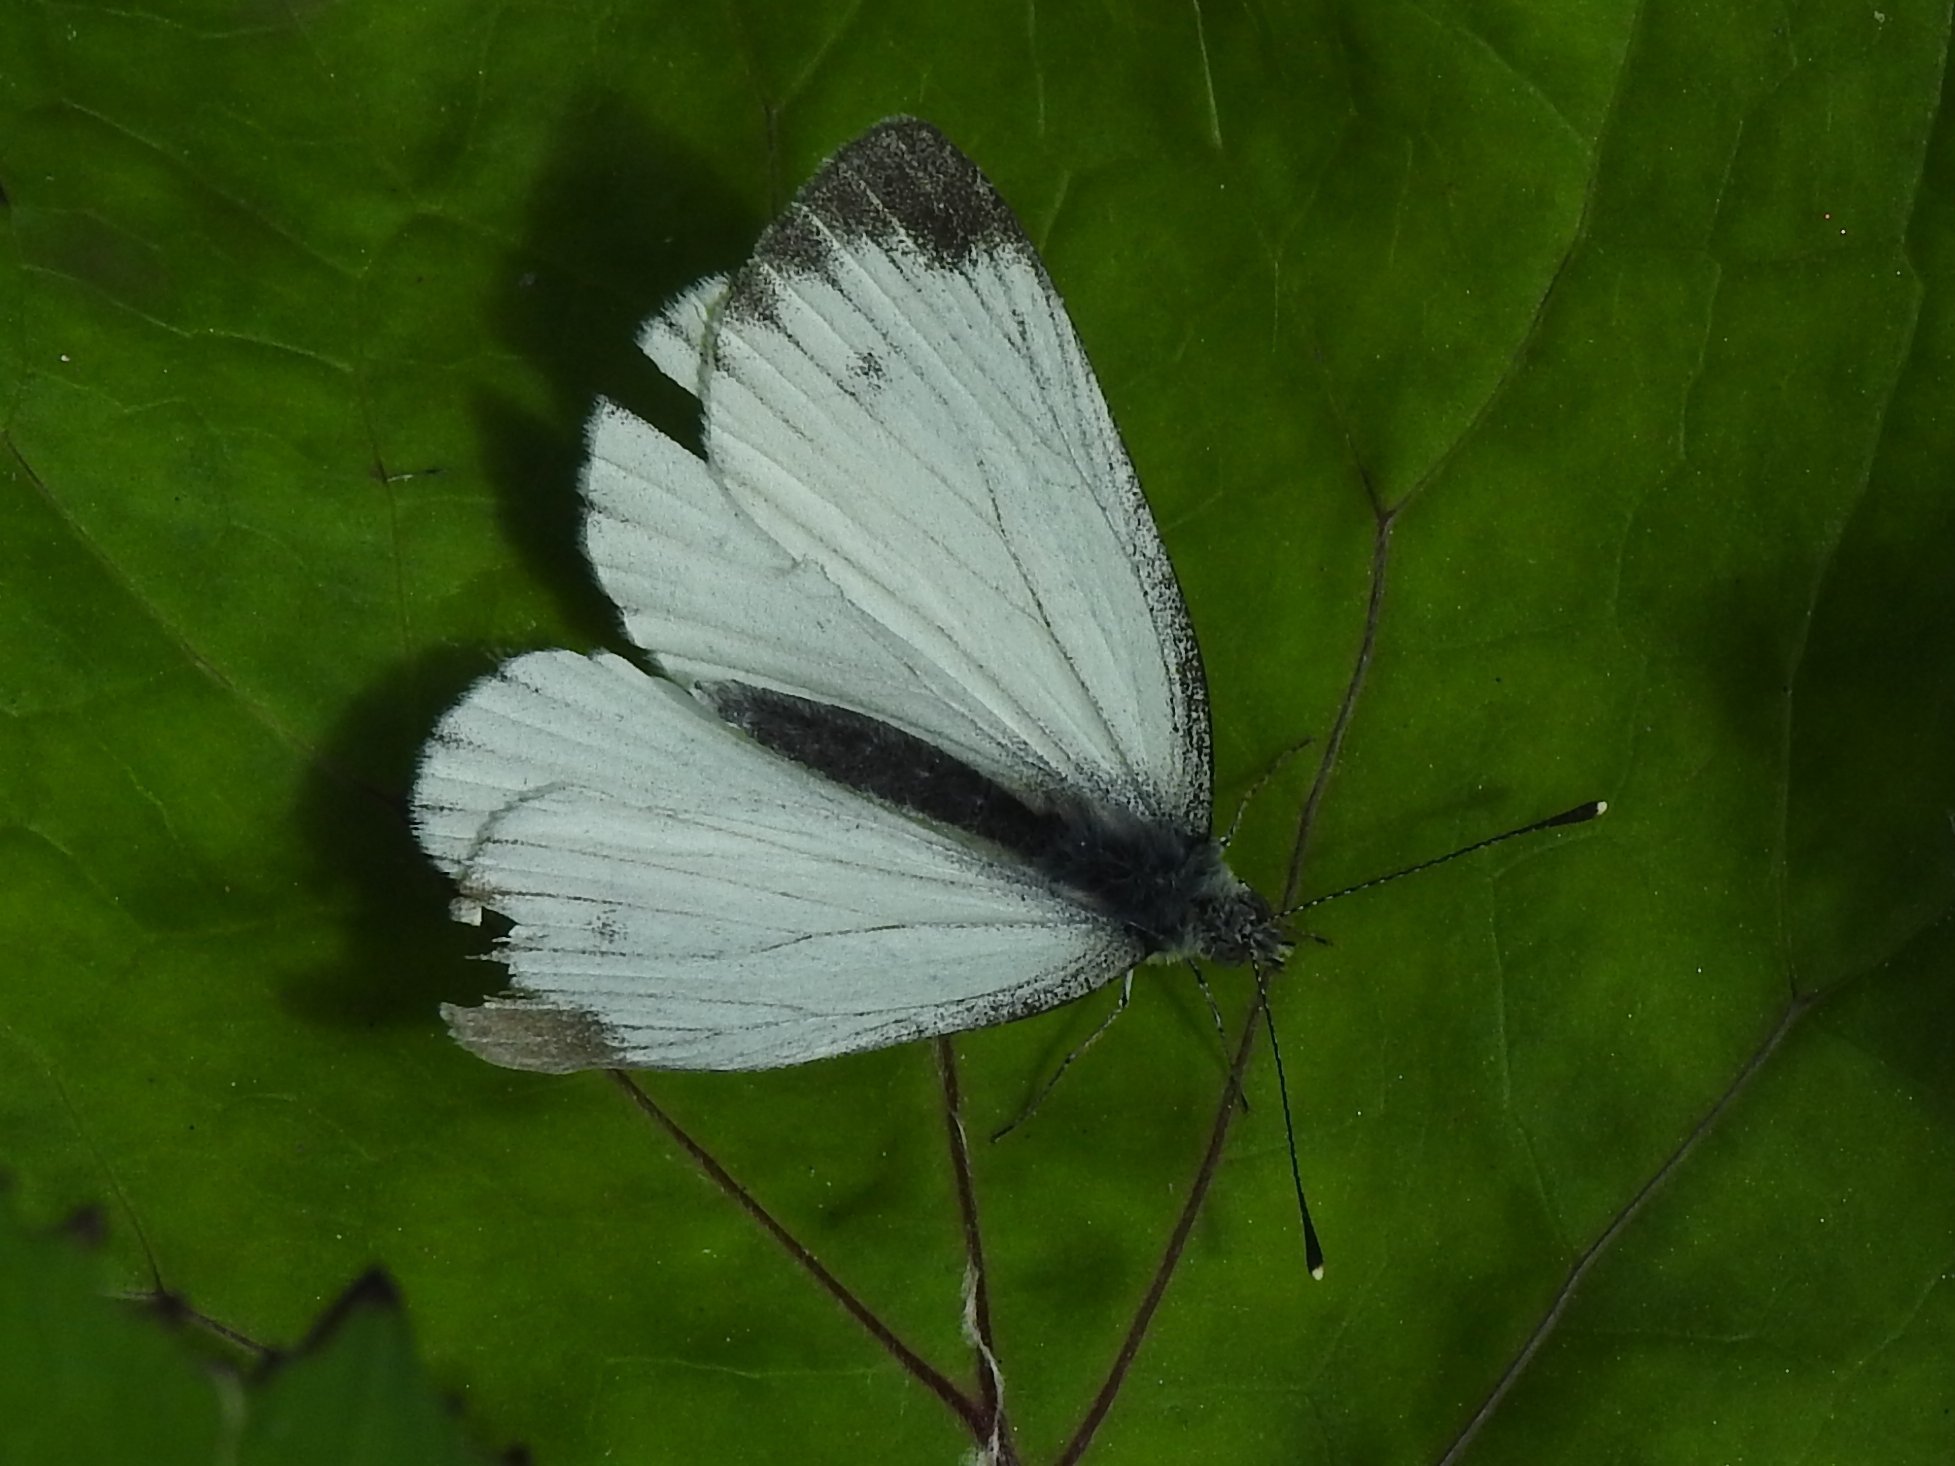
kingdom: Animalia
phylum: Arthropoda
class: Insecta
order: Lepidoptera
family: Pieridae
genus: Pieris
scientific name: Pieris napi
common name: Green-veined white
